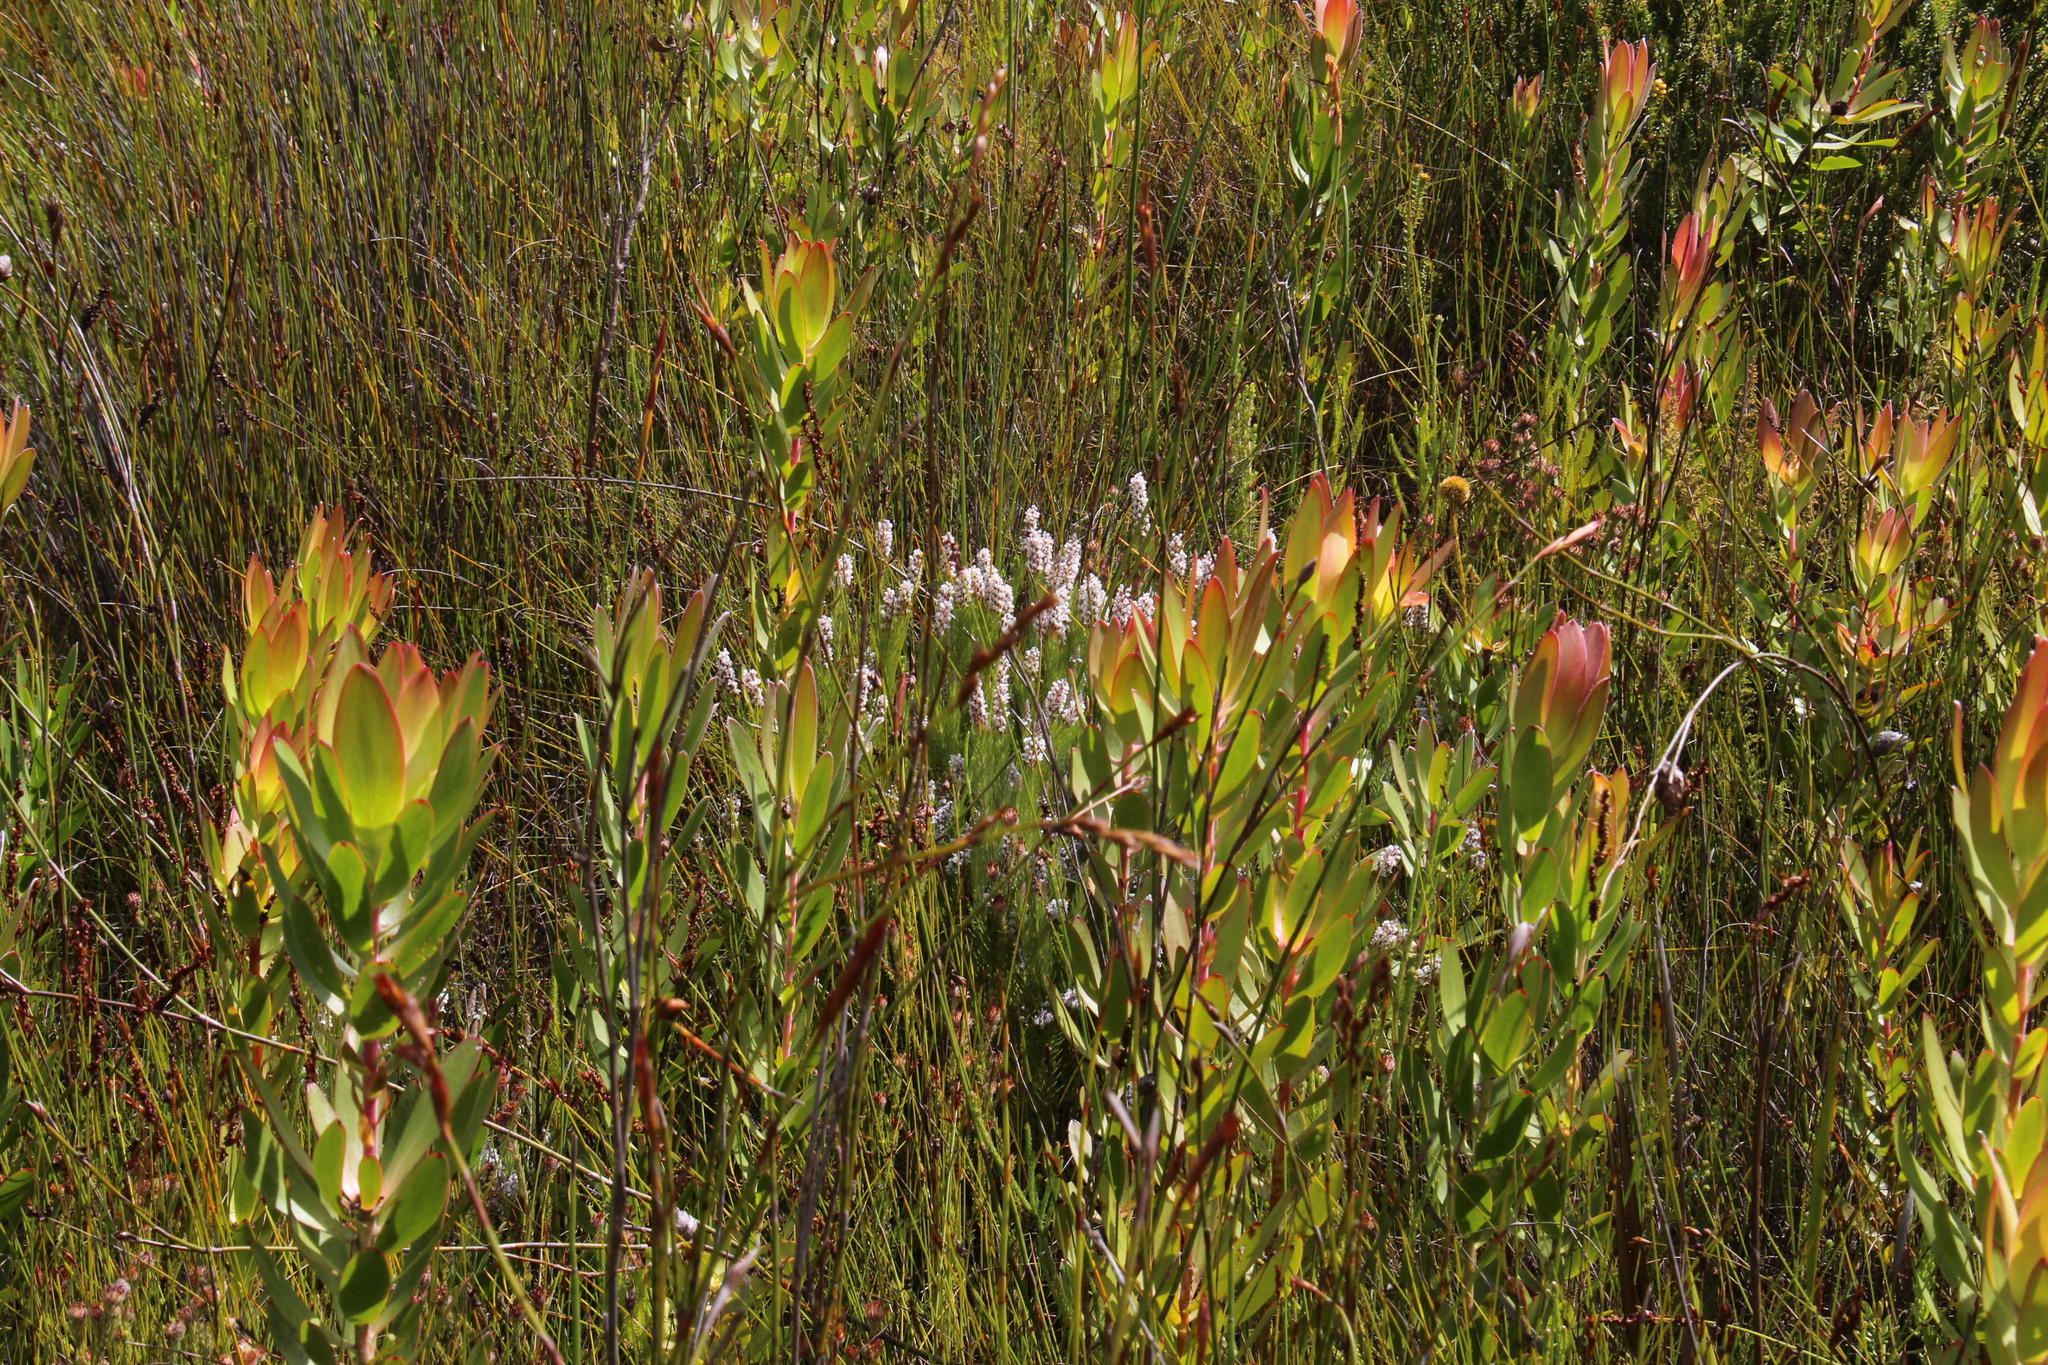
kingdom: Plantae
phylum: Tracheophyta
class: Magnoliopsida
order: Proteales
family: Proteaceae
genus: Leucadendron
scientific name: Leucadendron gandogeri
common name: Broad-leaf conebush
